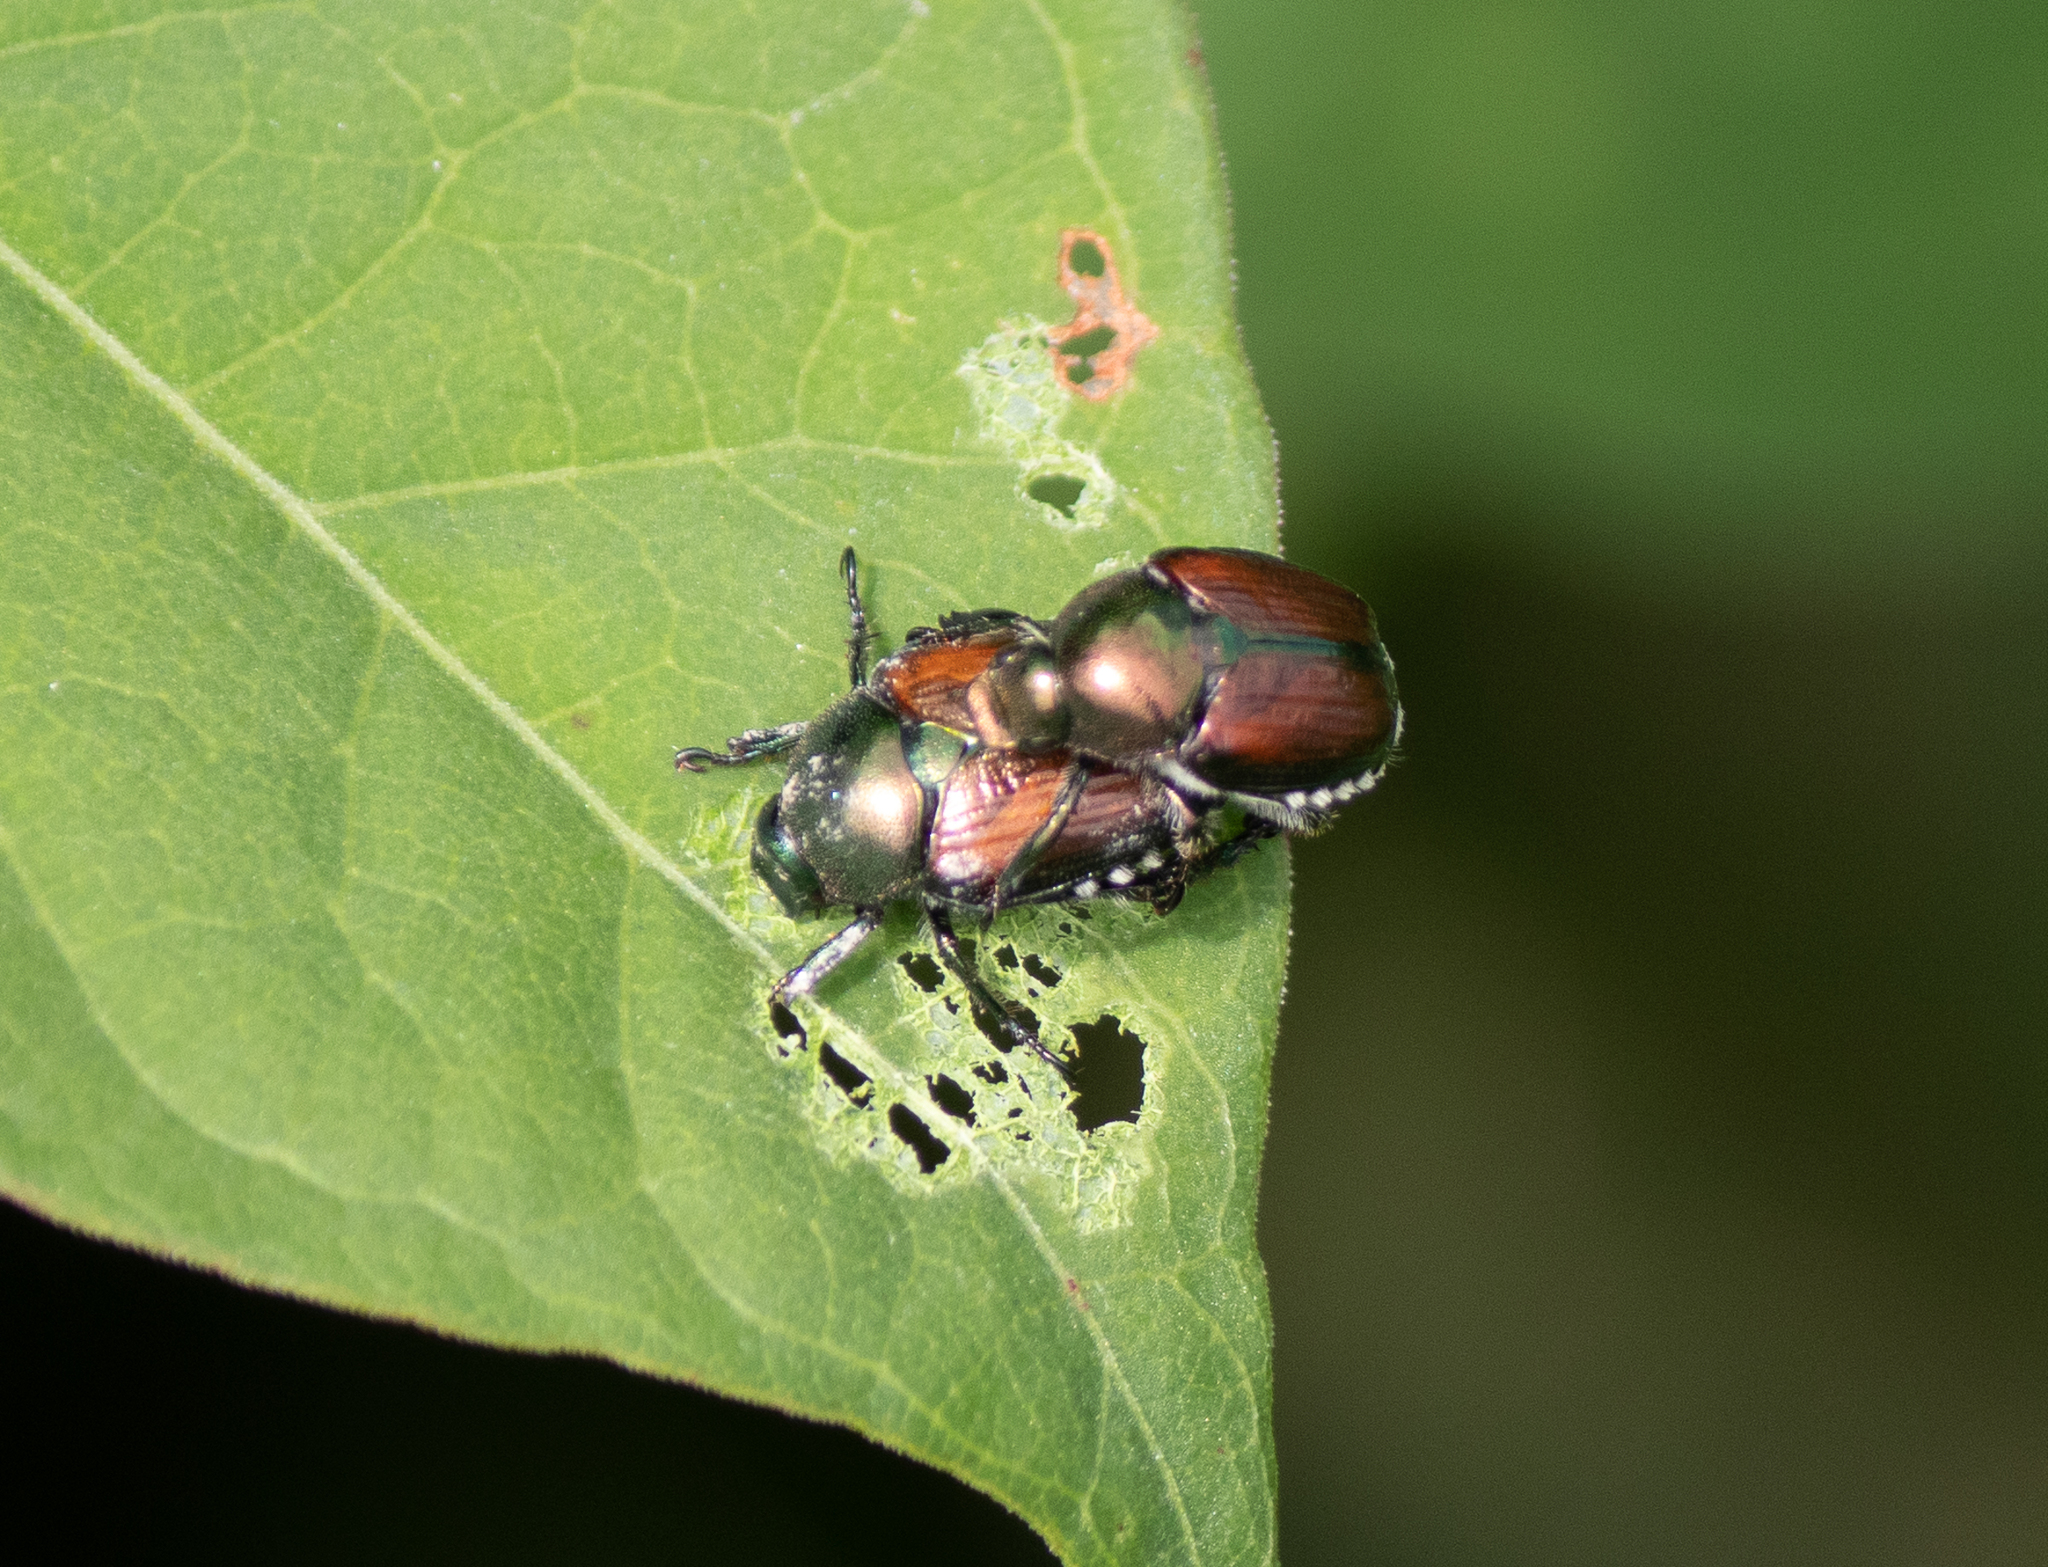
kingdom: Animalia
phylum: Arthropoda
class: Insecta
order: Coleoptera
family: Scarabaeidae
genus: Popillia
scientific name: Popillia japonica
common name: Japanese beetle
